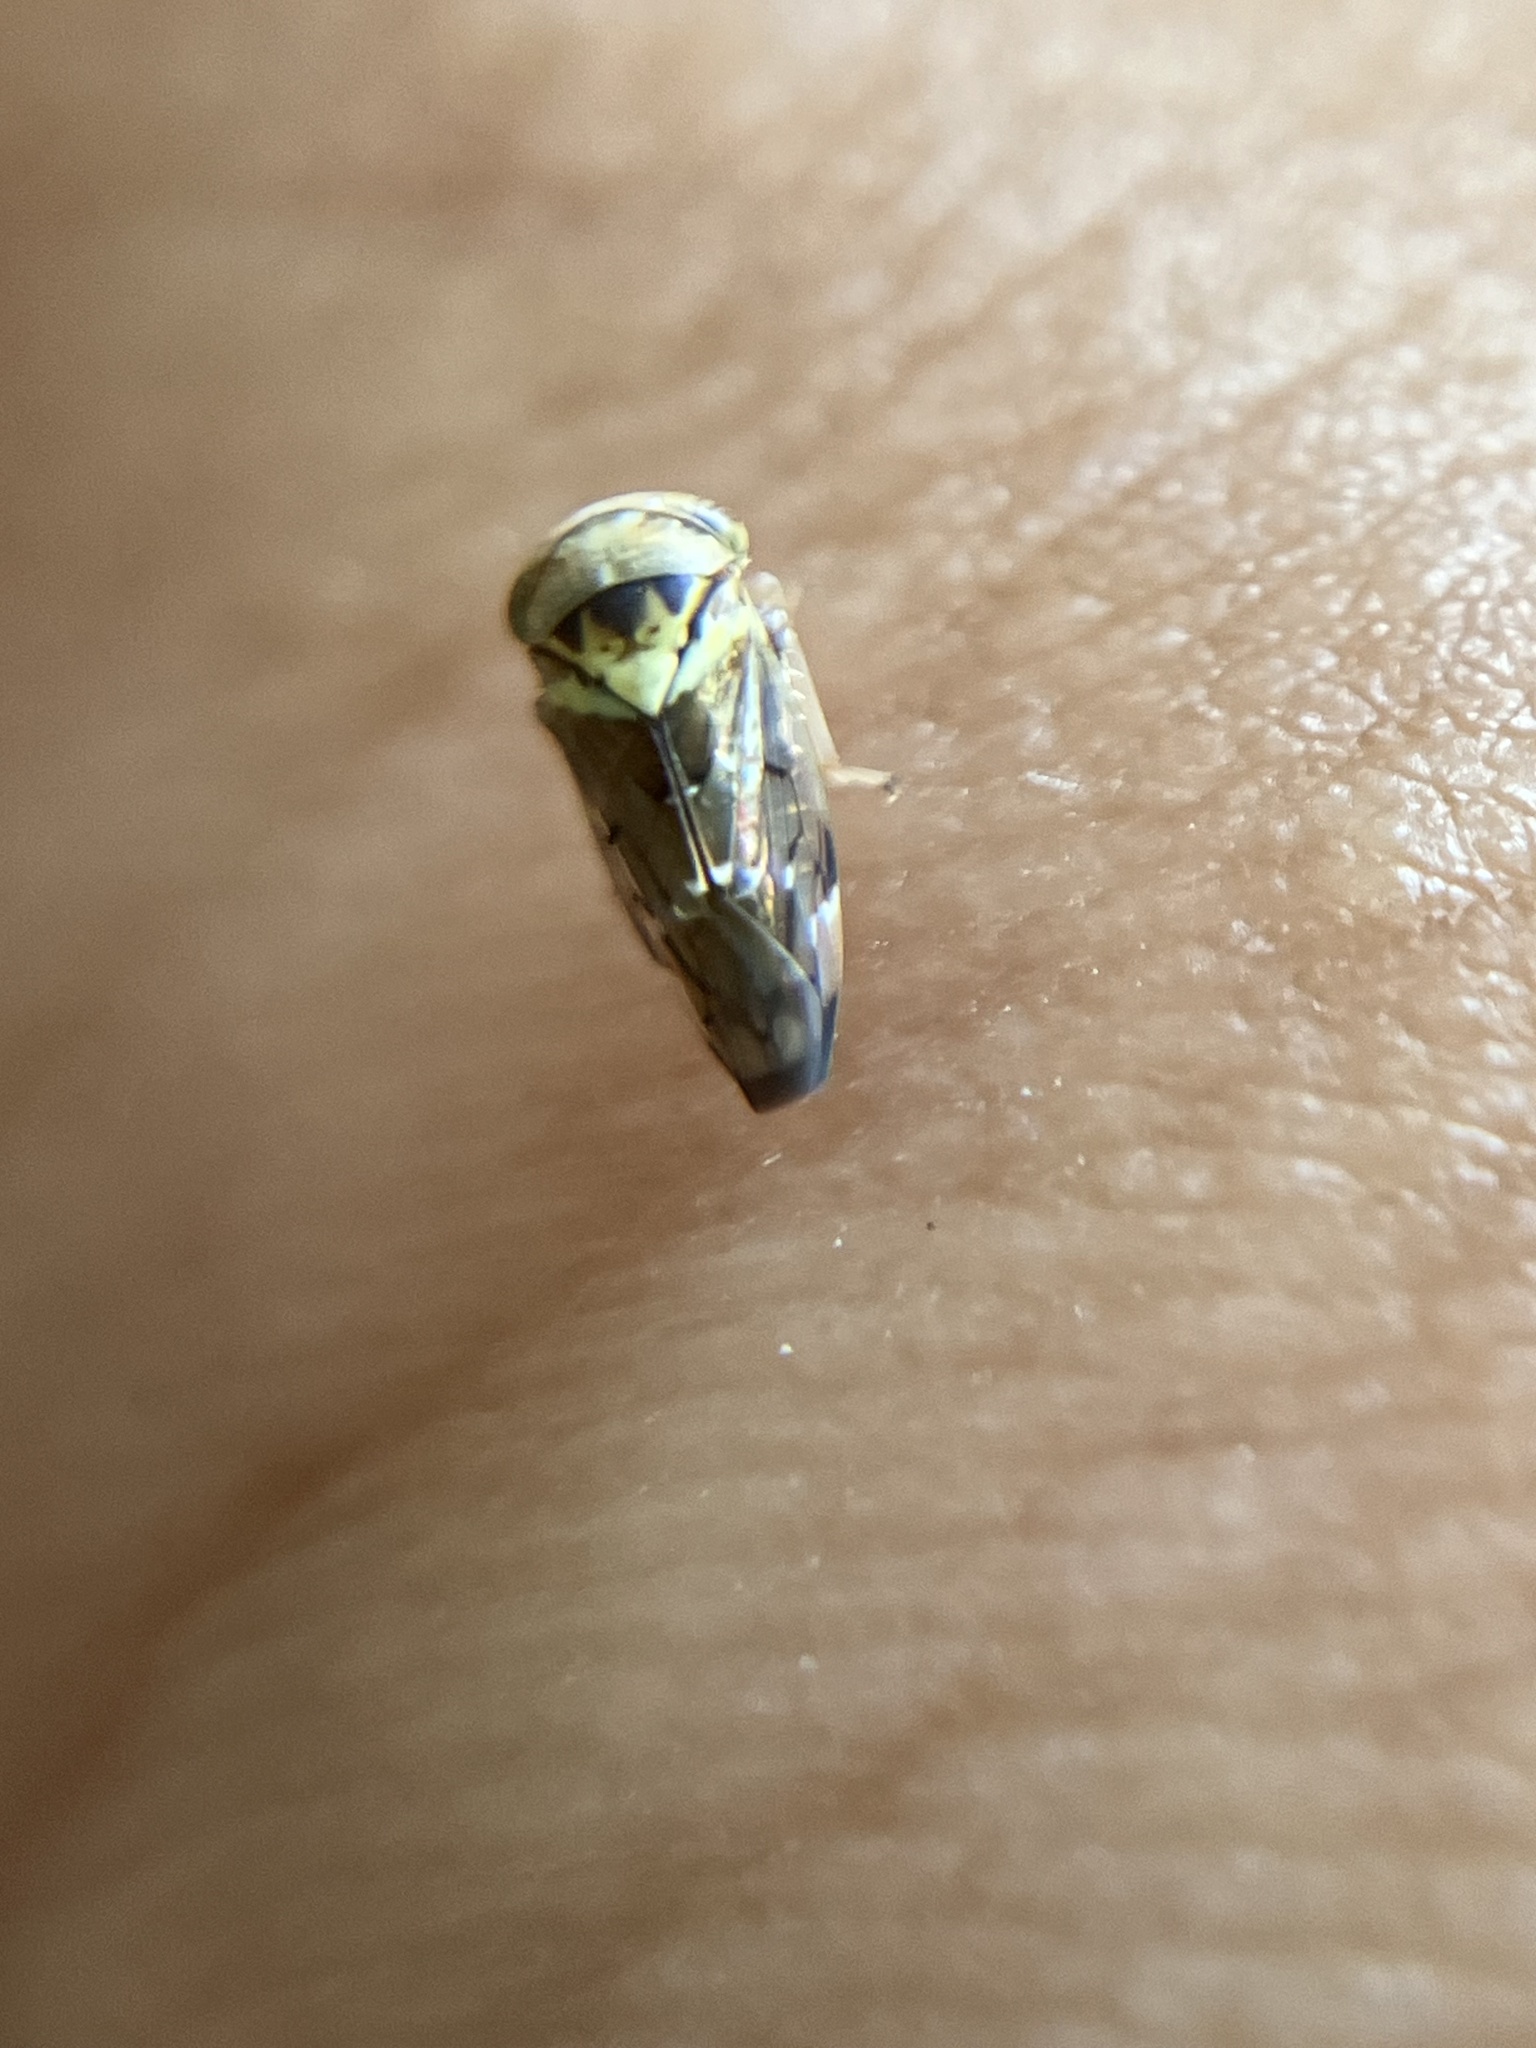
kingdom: Animalia
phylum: Arthropoda
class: Insecta
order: Hemiptera
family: Cicadellidae
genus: Idioscopus
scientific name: Idioscopus nitidulus
